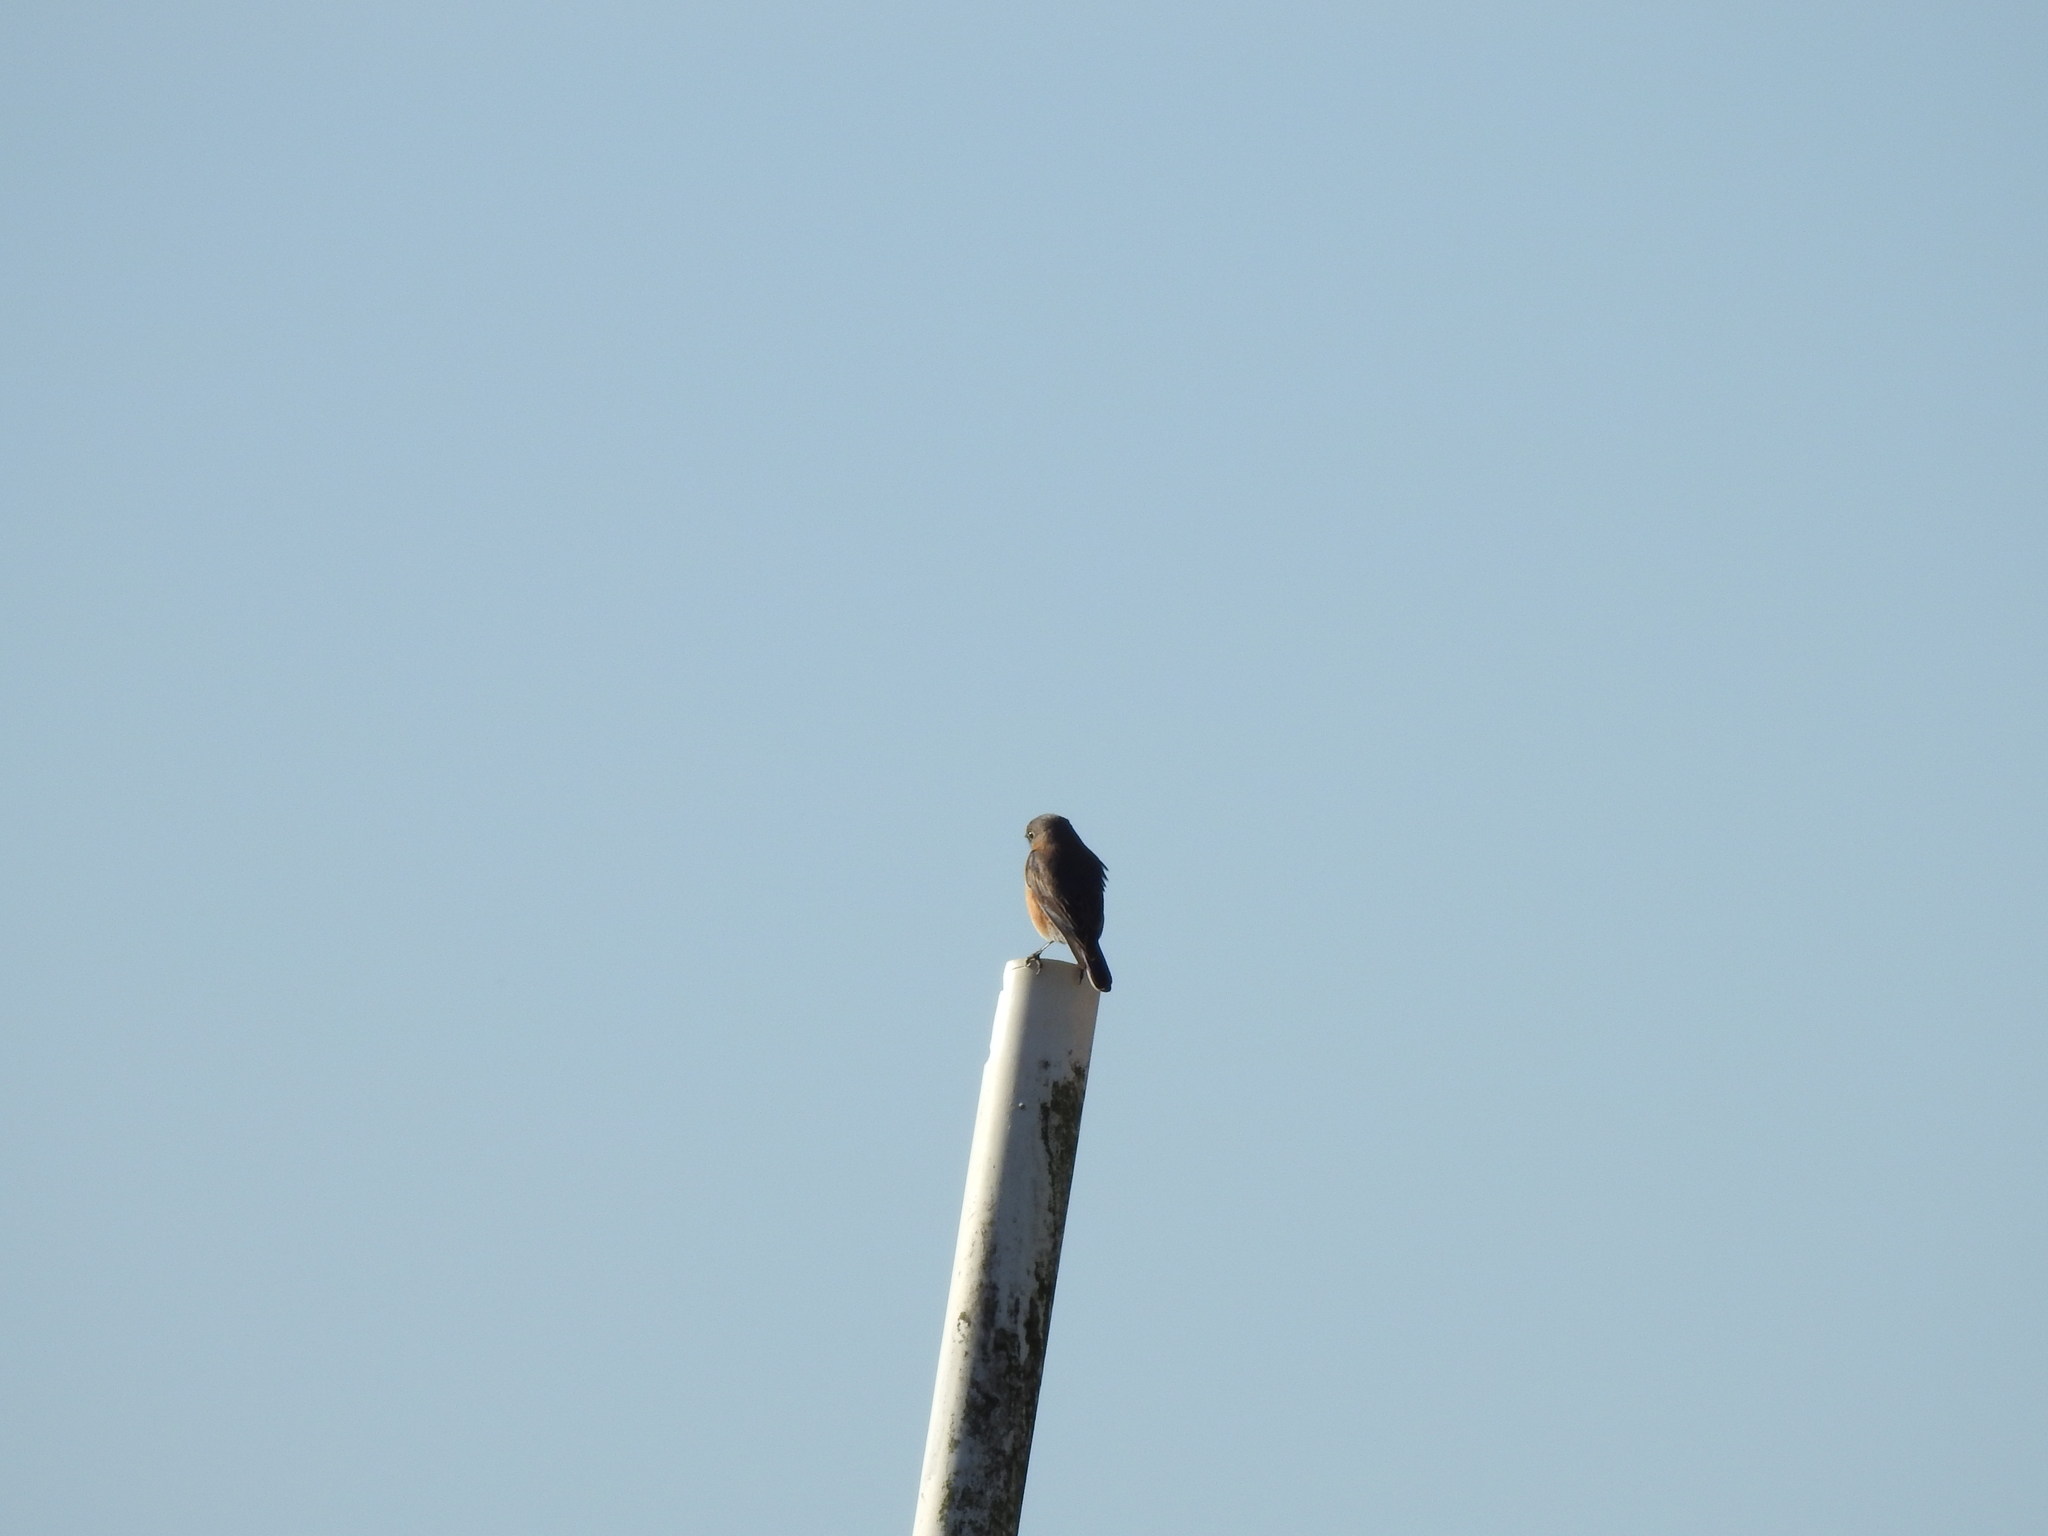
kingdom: Animalia
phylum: Chordata
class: Aves
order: Passeriformes
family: Turdidae
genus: Sialia
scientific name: Sialia sialis
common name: Eastern bluebird
